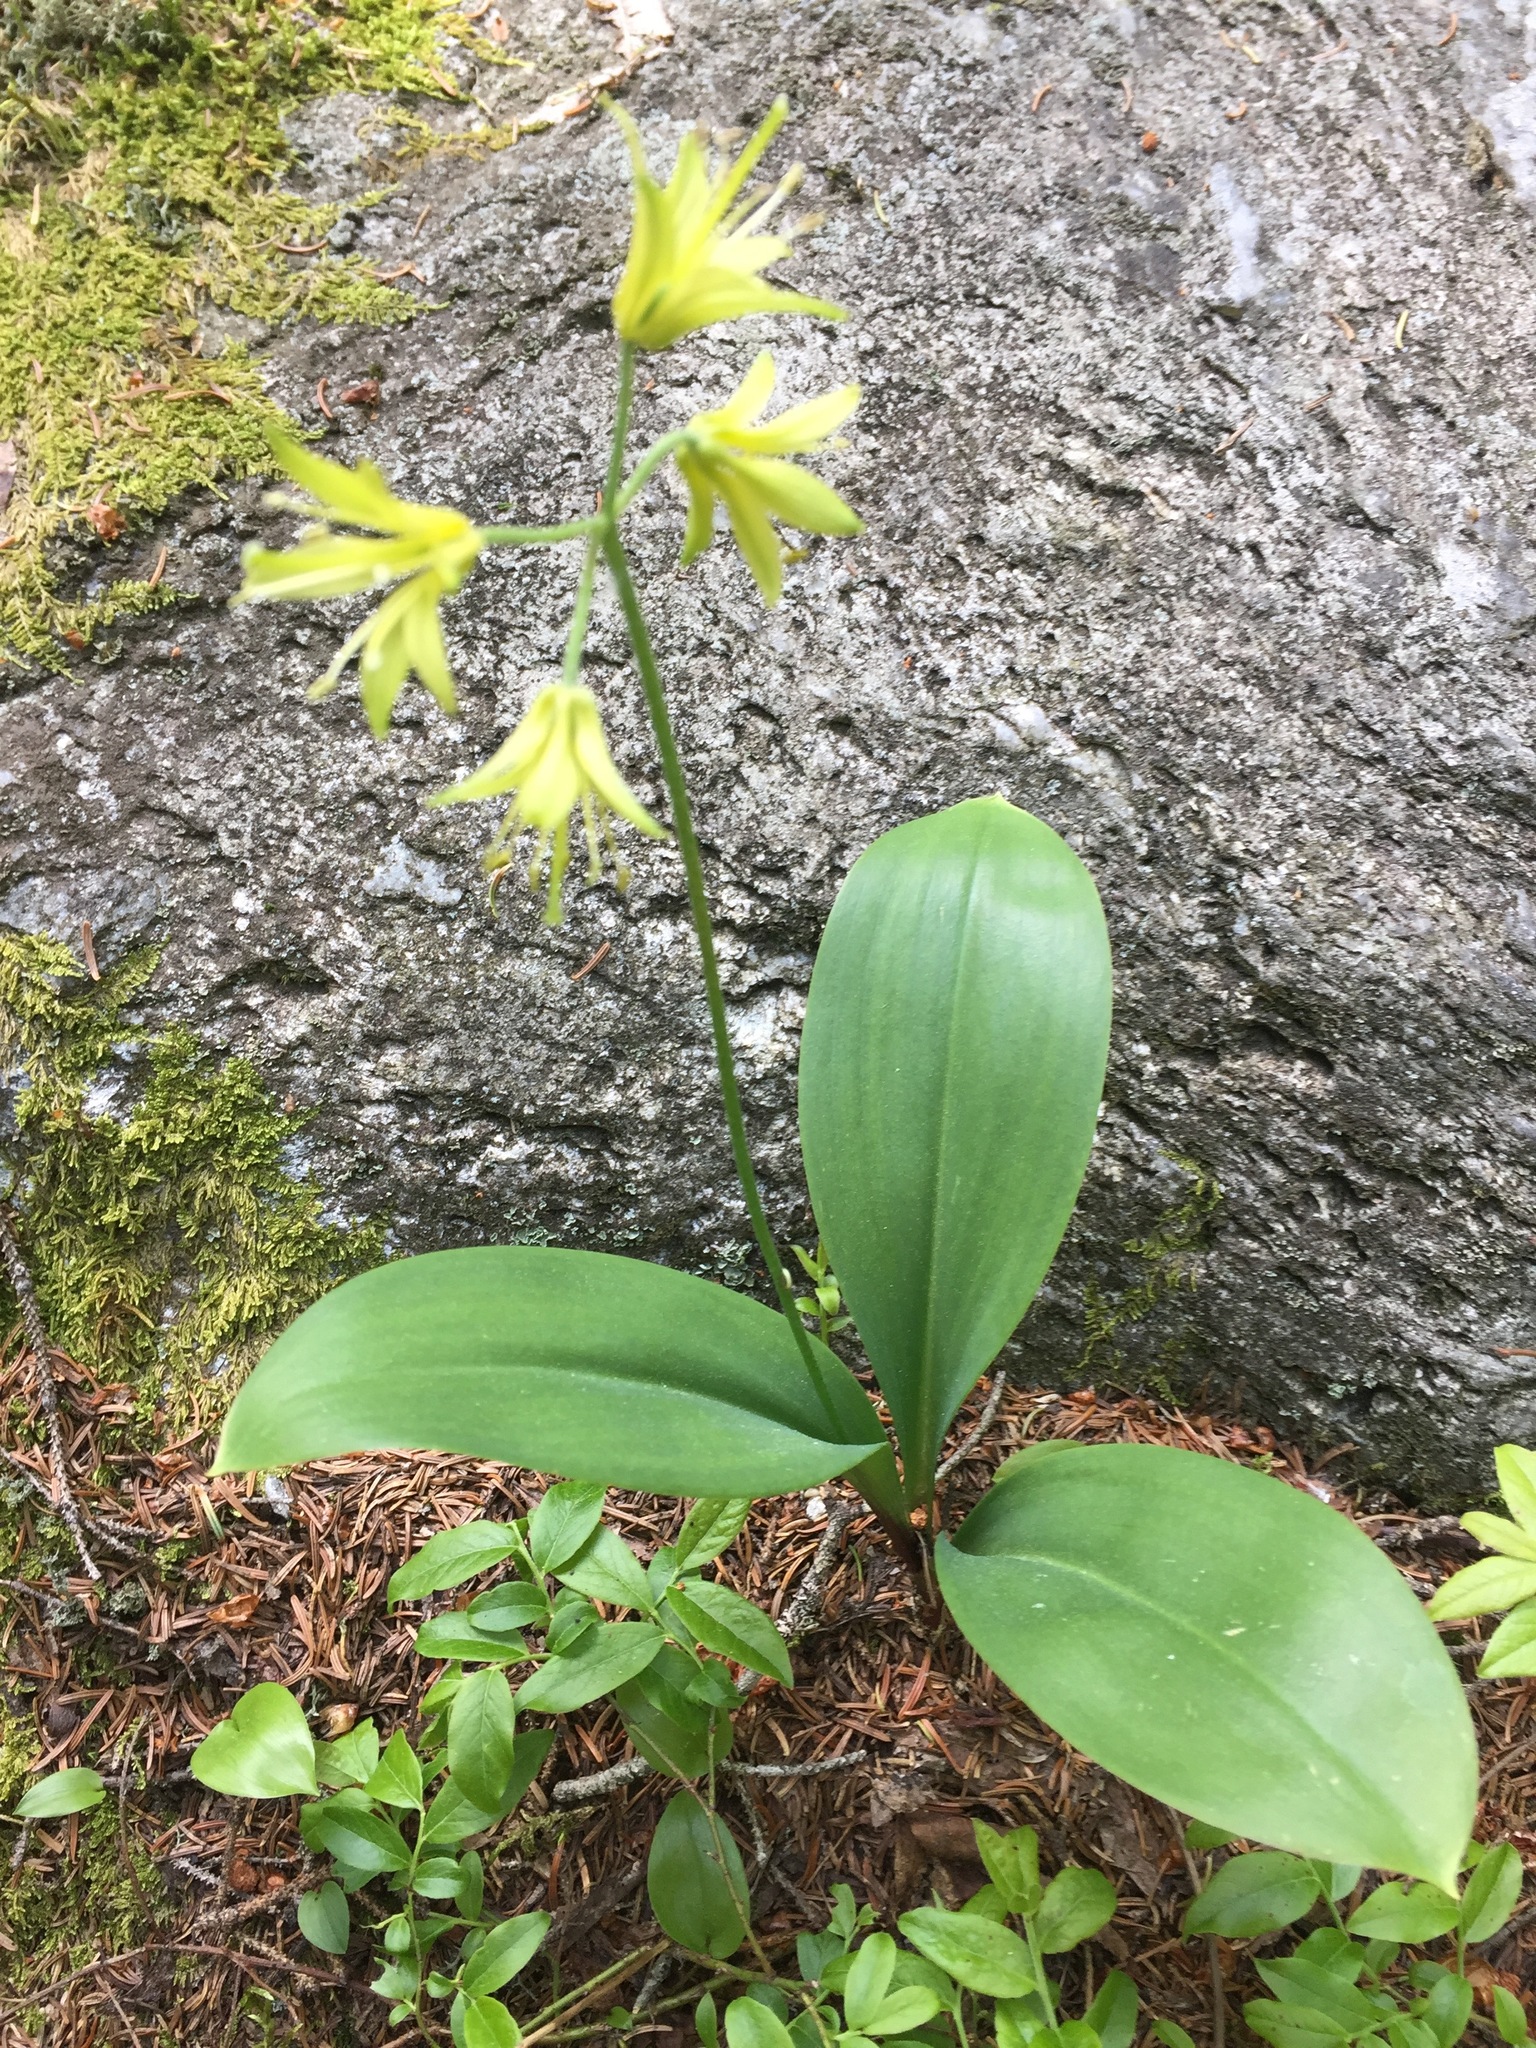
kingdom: Plantae
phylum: Tracheophyta
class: Liliopsida
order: Liliales
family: Liliaceae
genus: Clintonia
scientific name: Clintonia borealis
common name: Yellow clintonia
